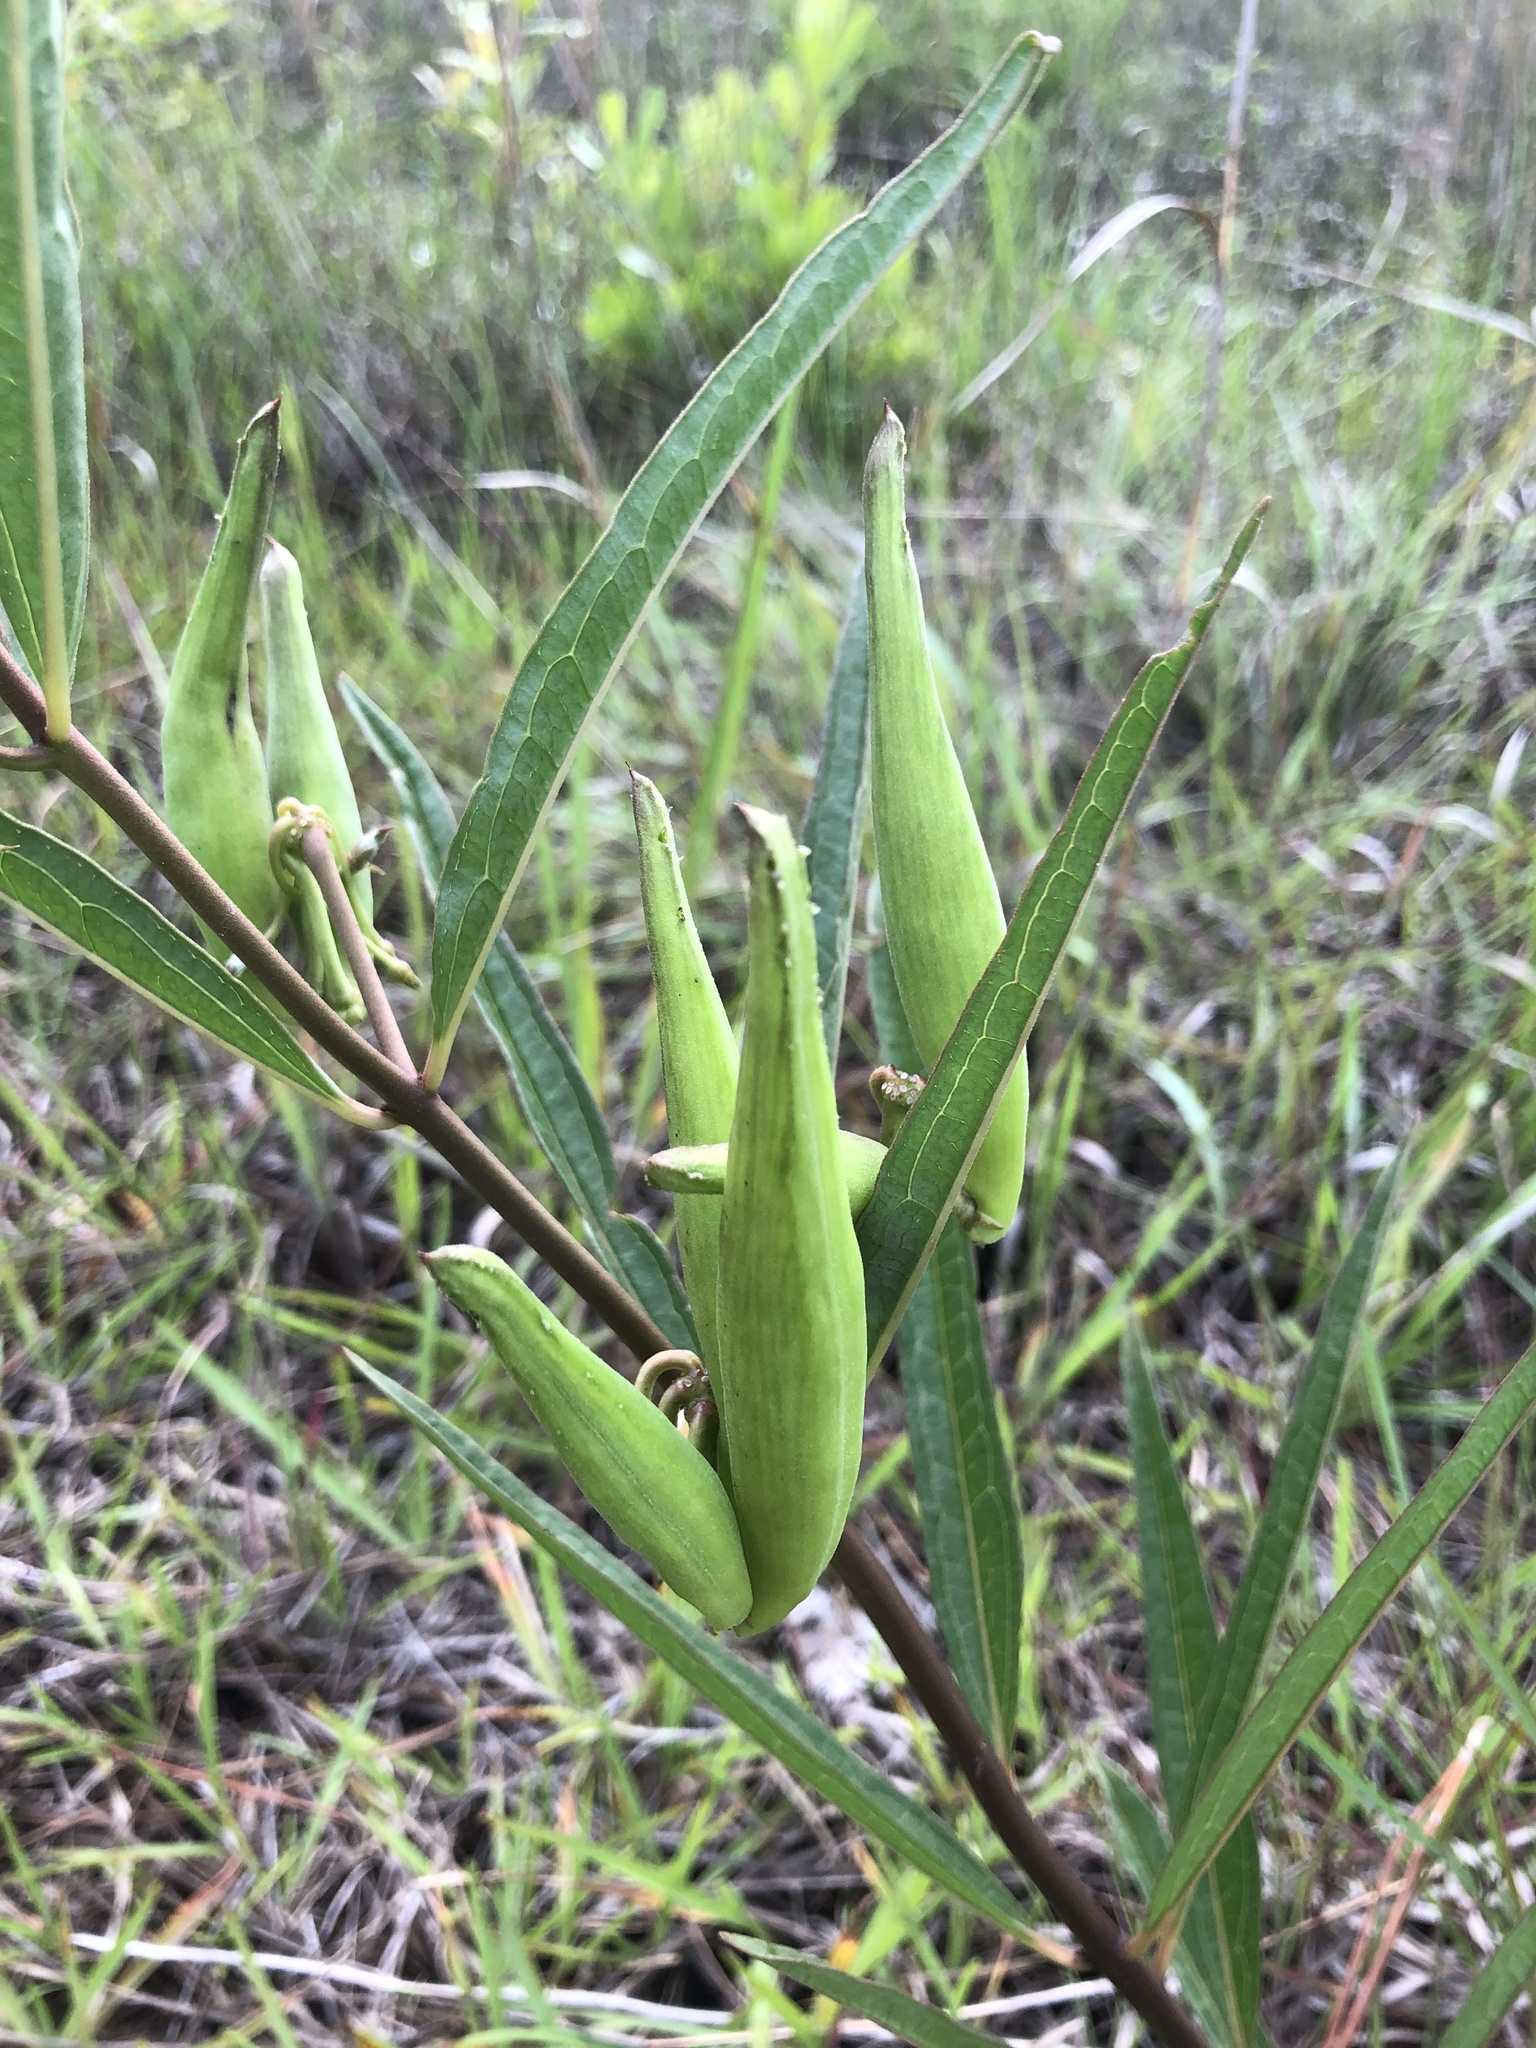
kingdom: Plantae
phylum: Tracheophyta
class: Magnoliopsida
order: Gentianales
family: Apocynaceae
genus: Asclepias
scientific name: Asclepias longifolia
